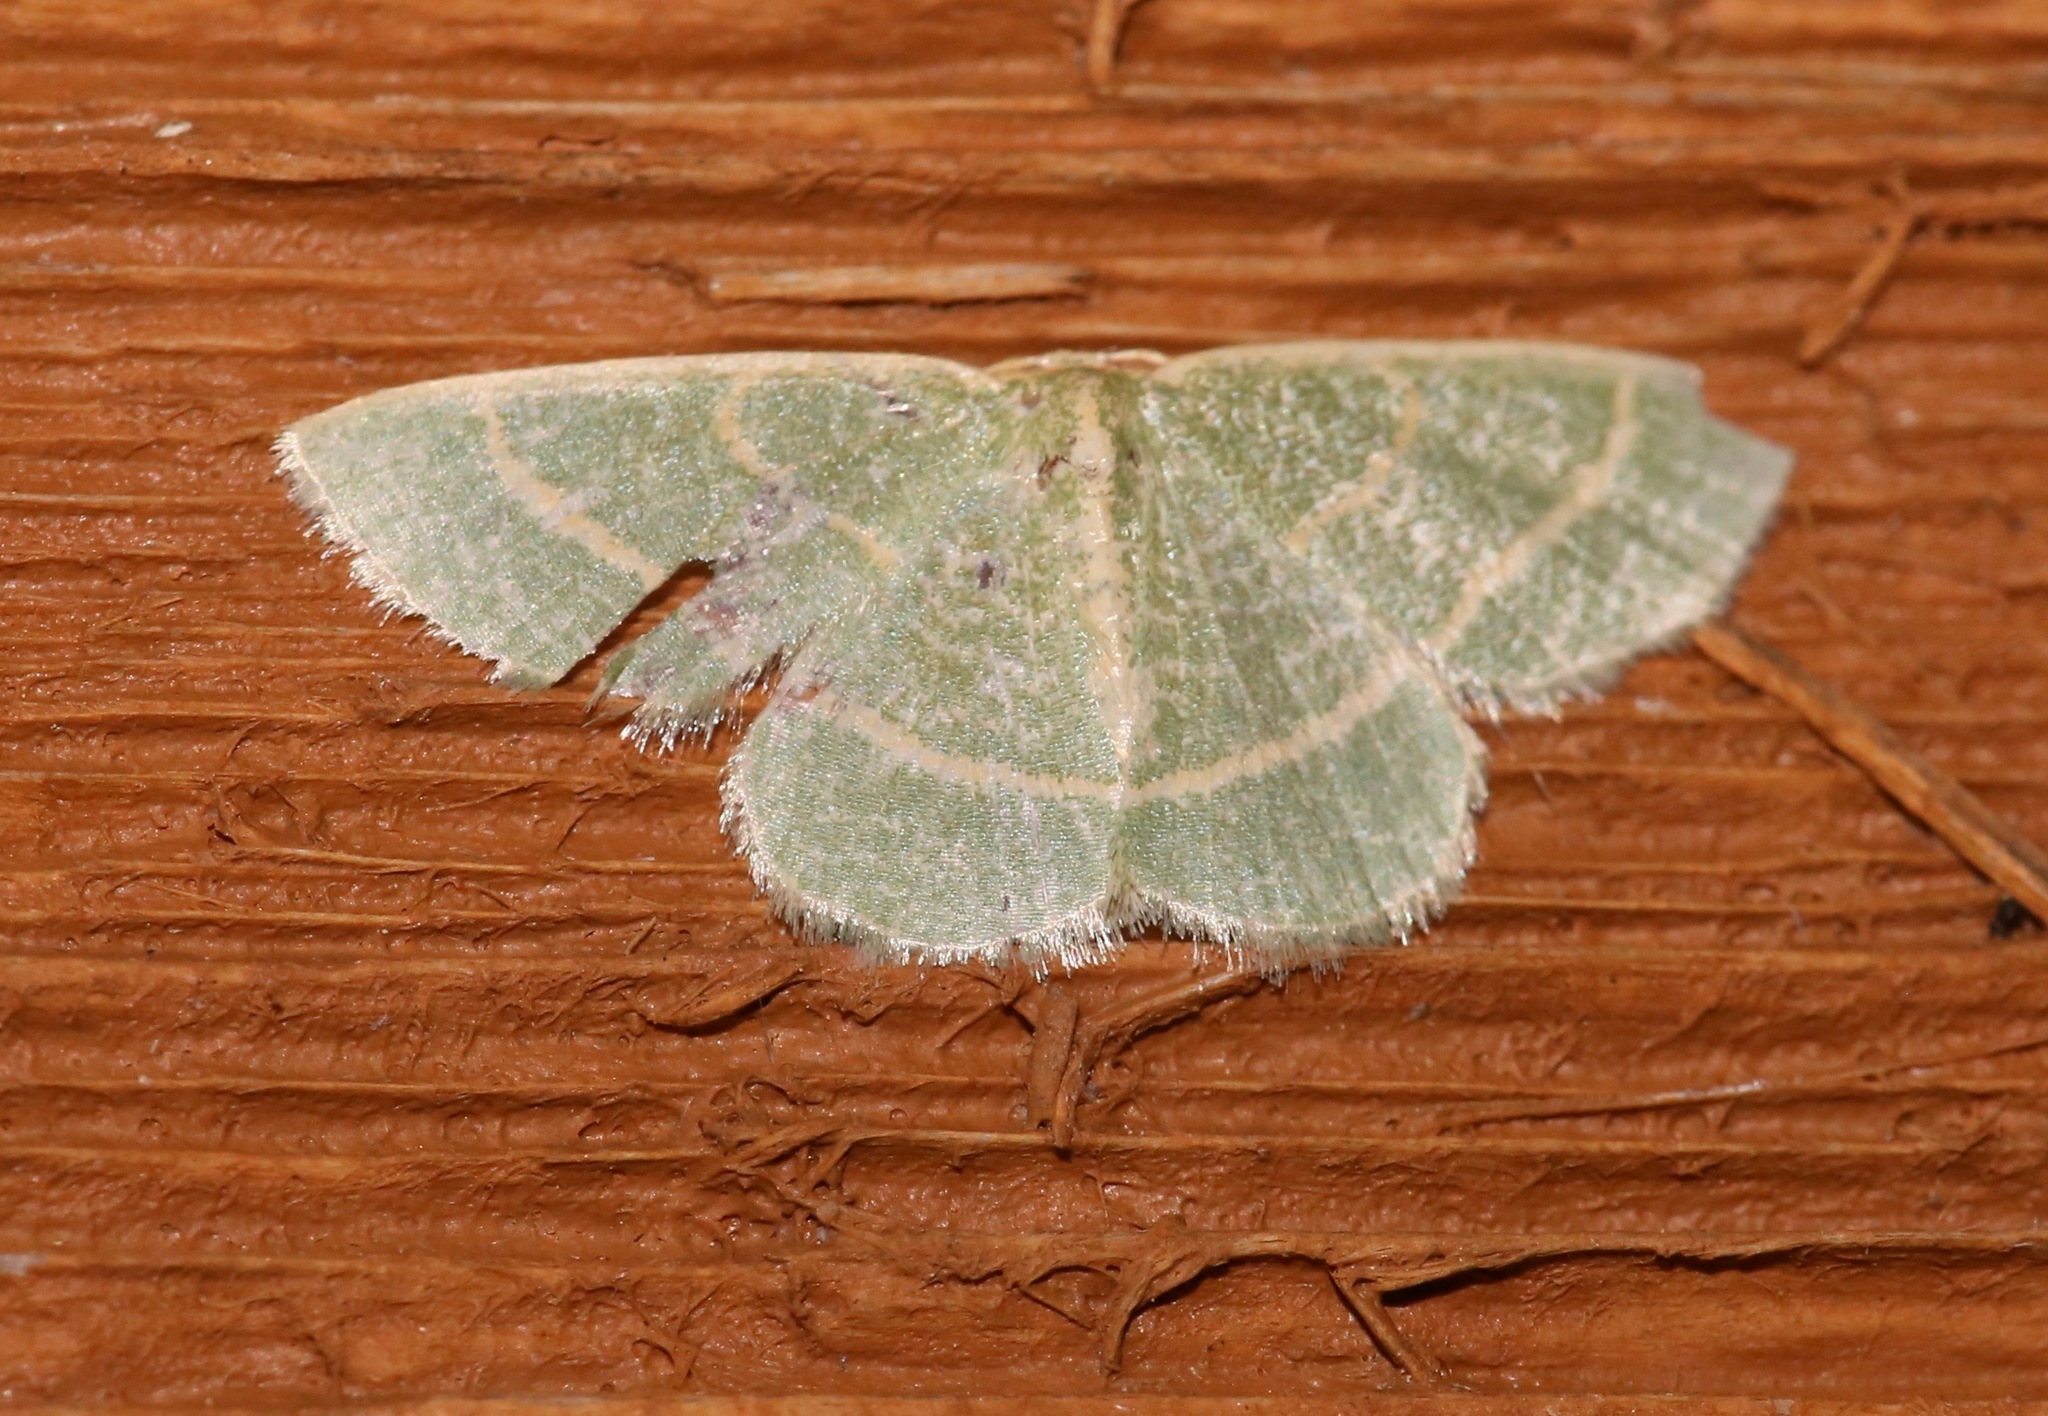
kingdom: Animalia
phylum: Arthropoda
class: Insecta
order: Lepidoptera
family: Geometridae
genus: Chlorochlamys
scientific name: Chlorochlamys chloroleucaria
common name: Blackberry looper
